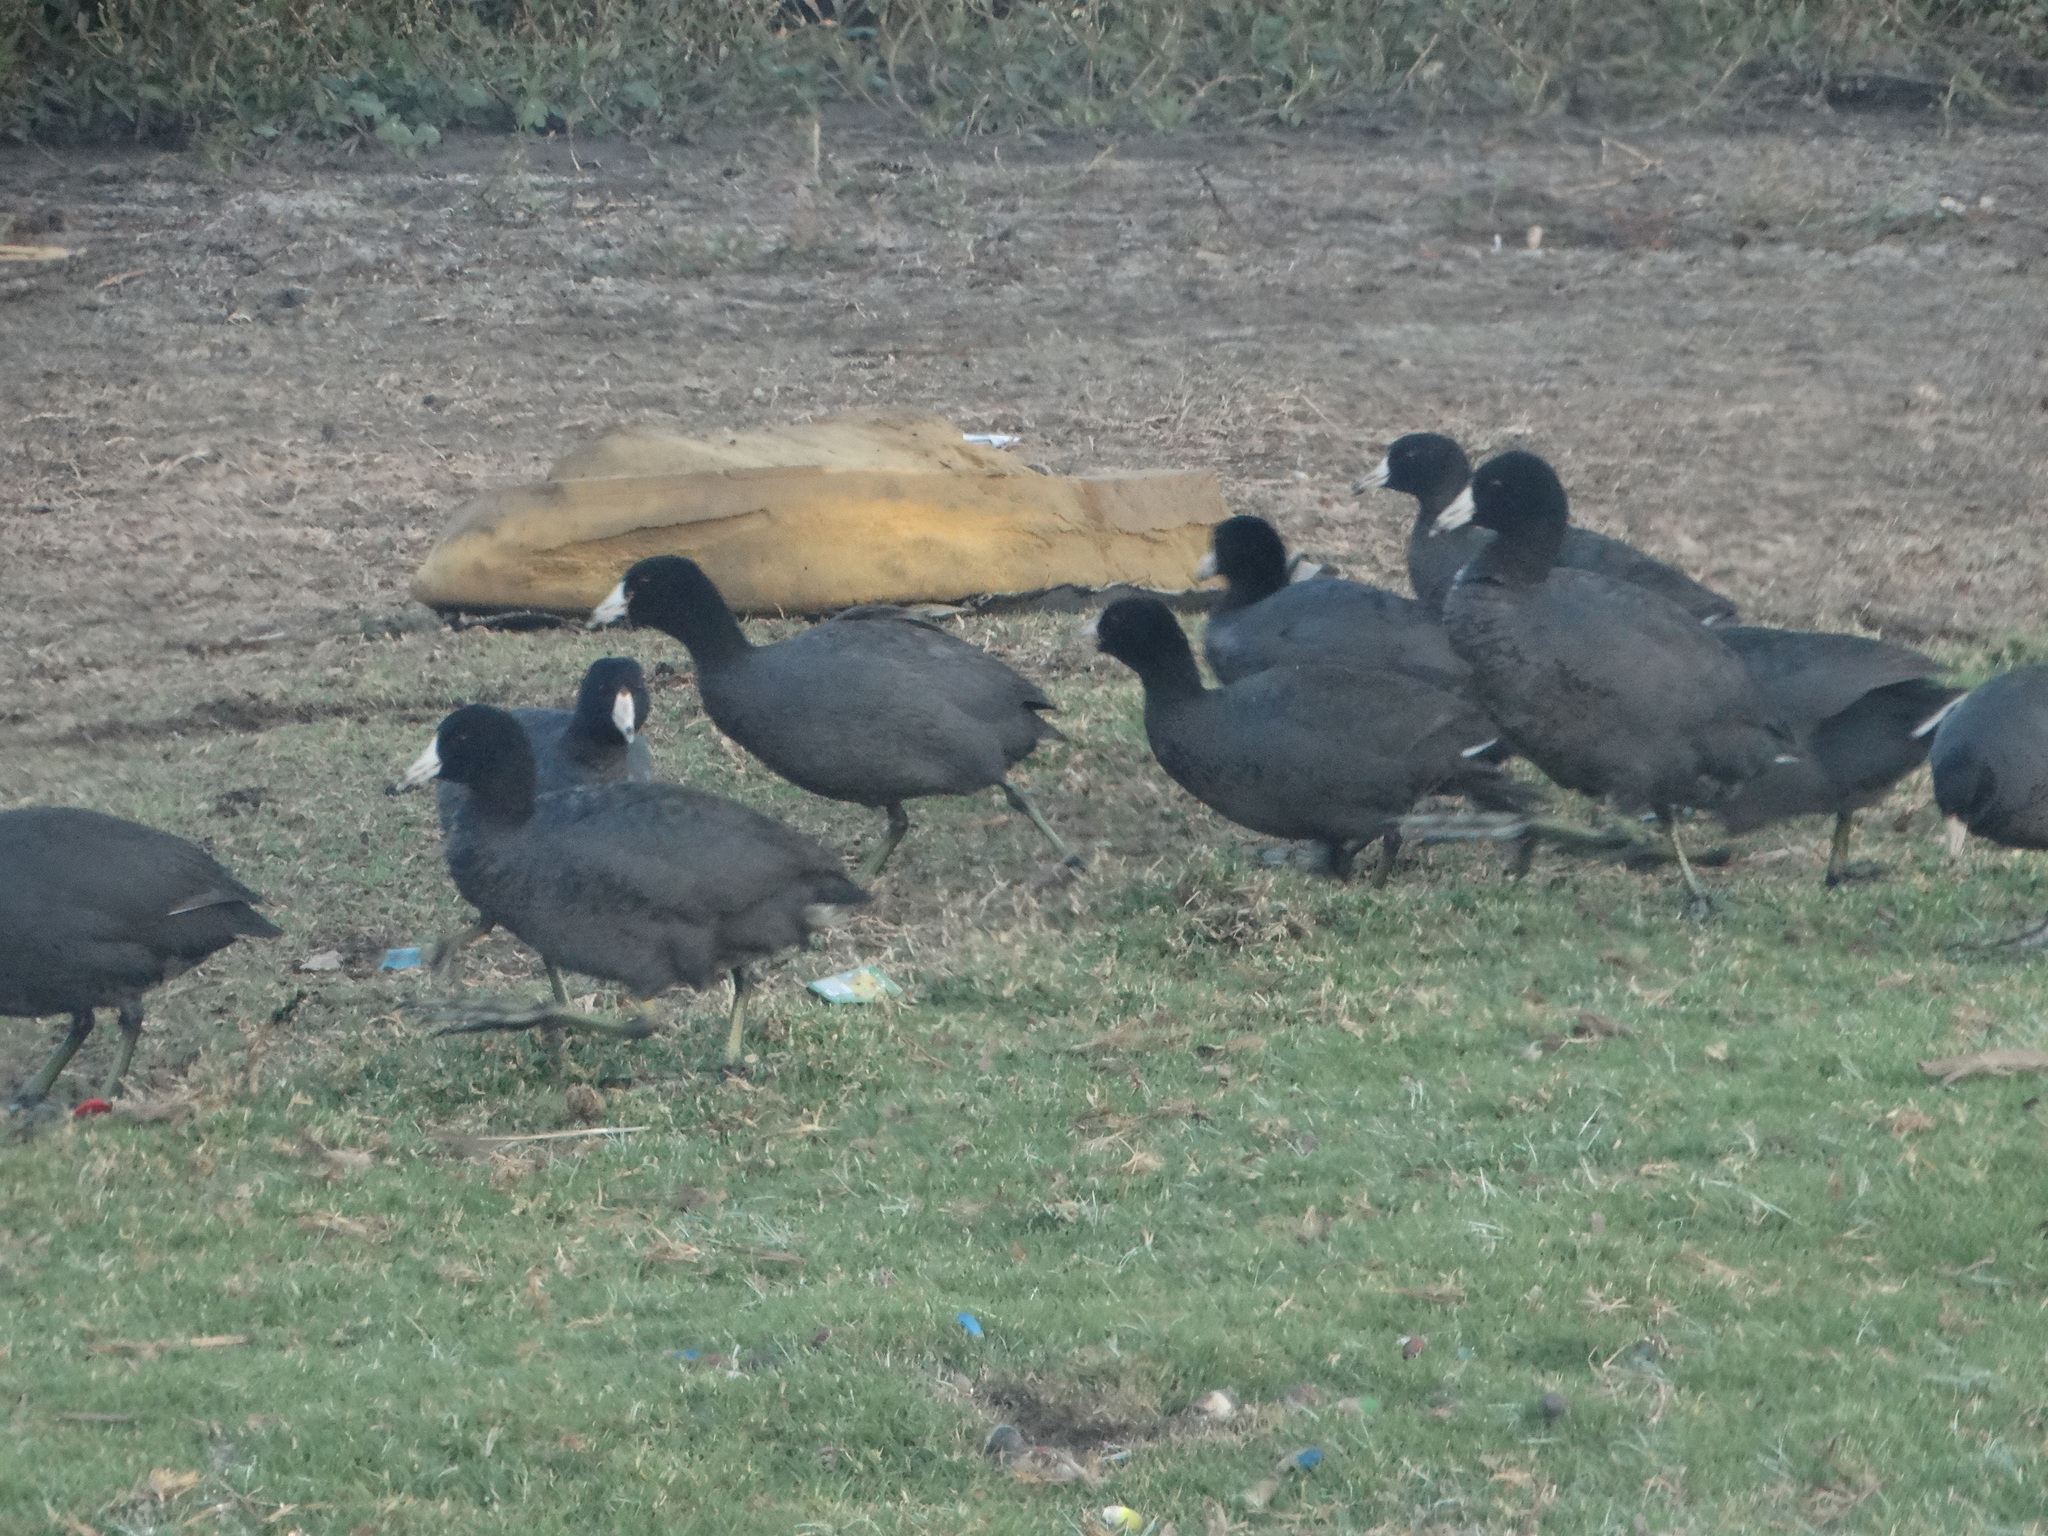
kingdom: Animalia
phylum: Chordata
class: Aves
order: Gruiformes
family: Rallidae
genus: Fulica
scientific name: Fulica americana
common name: American coot
